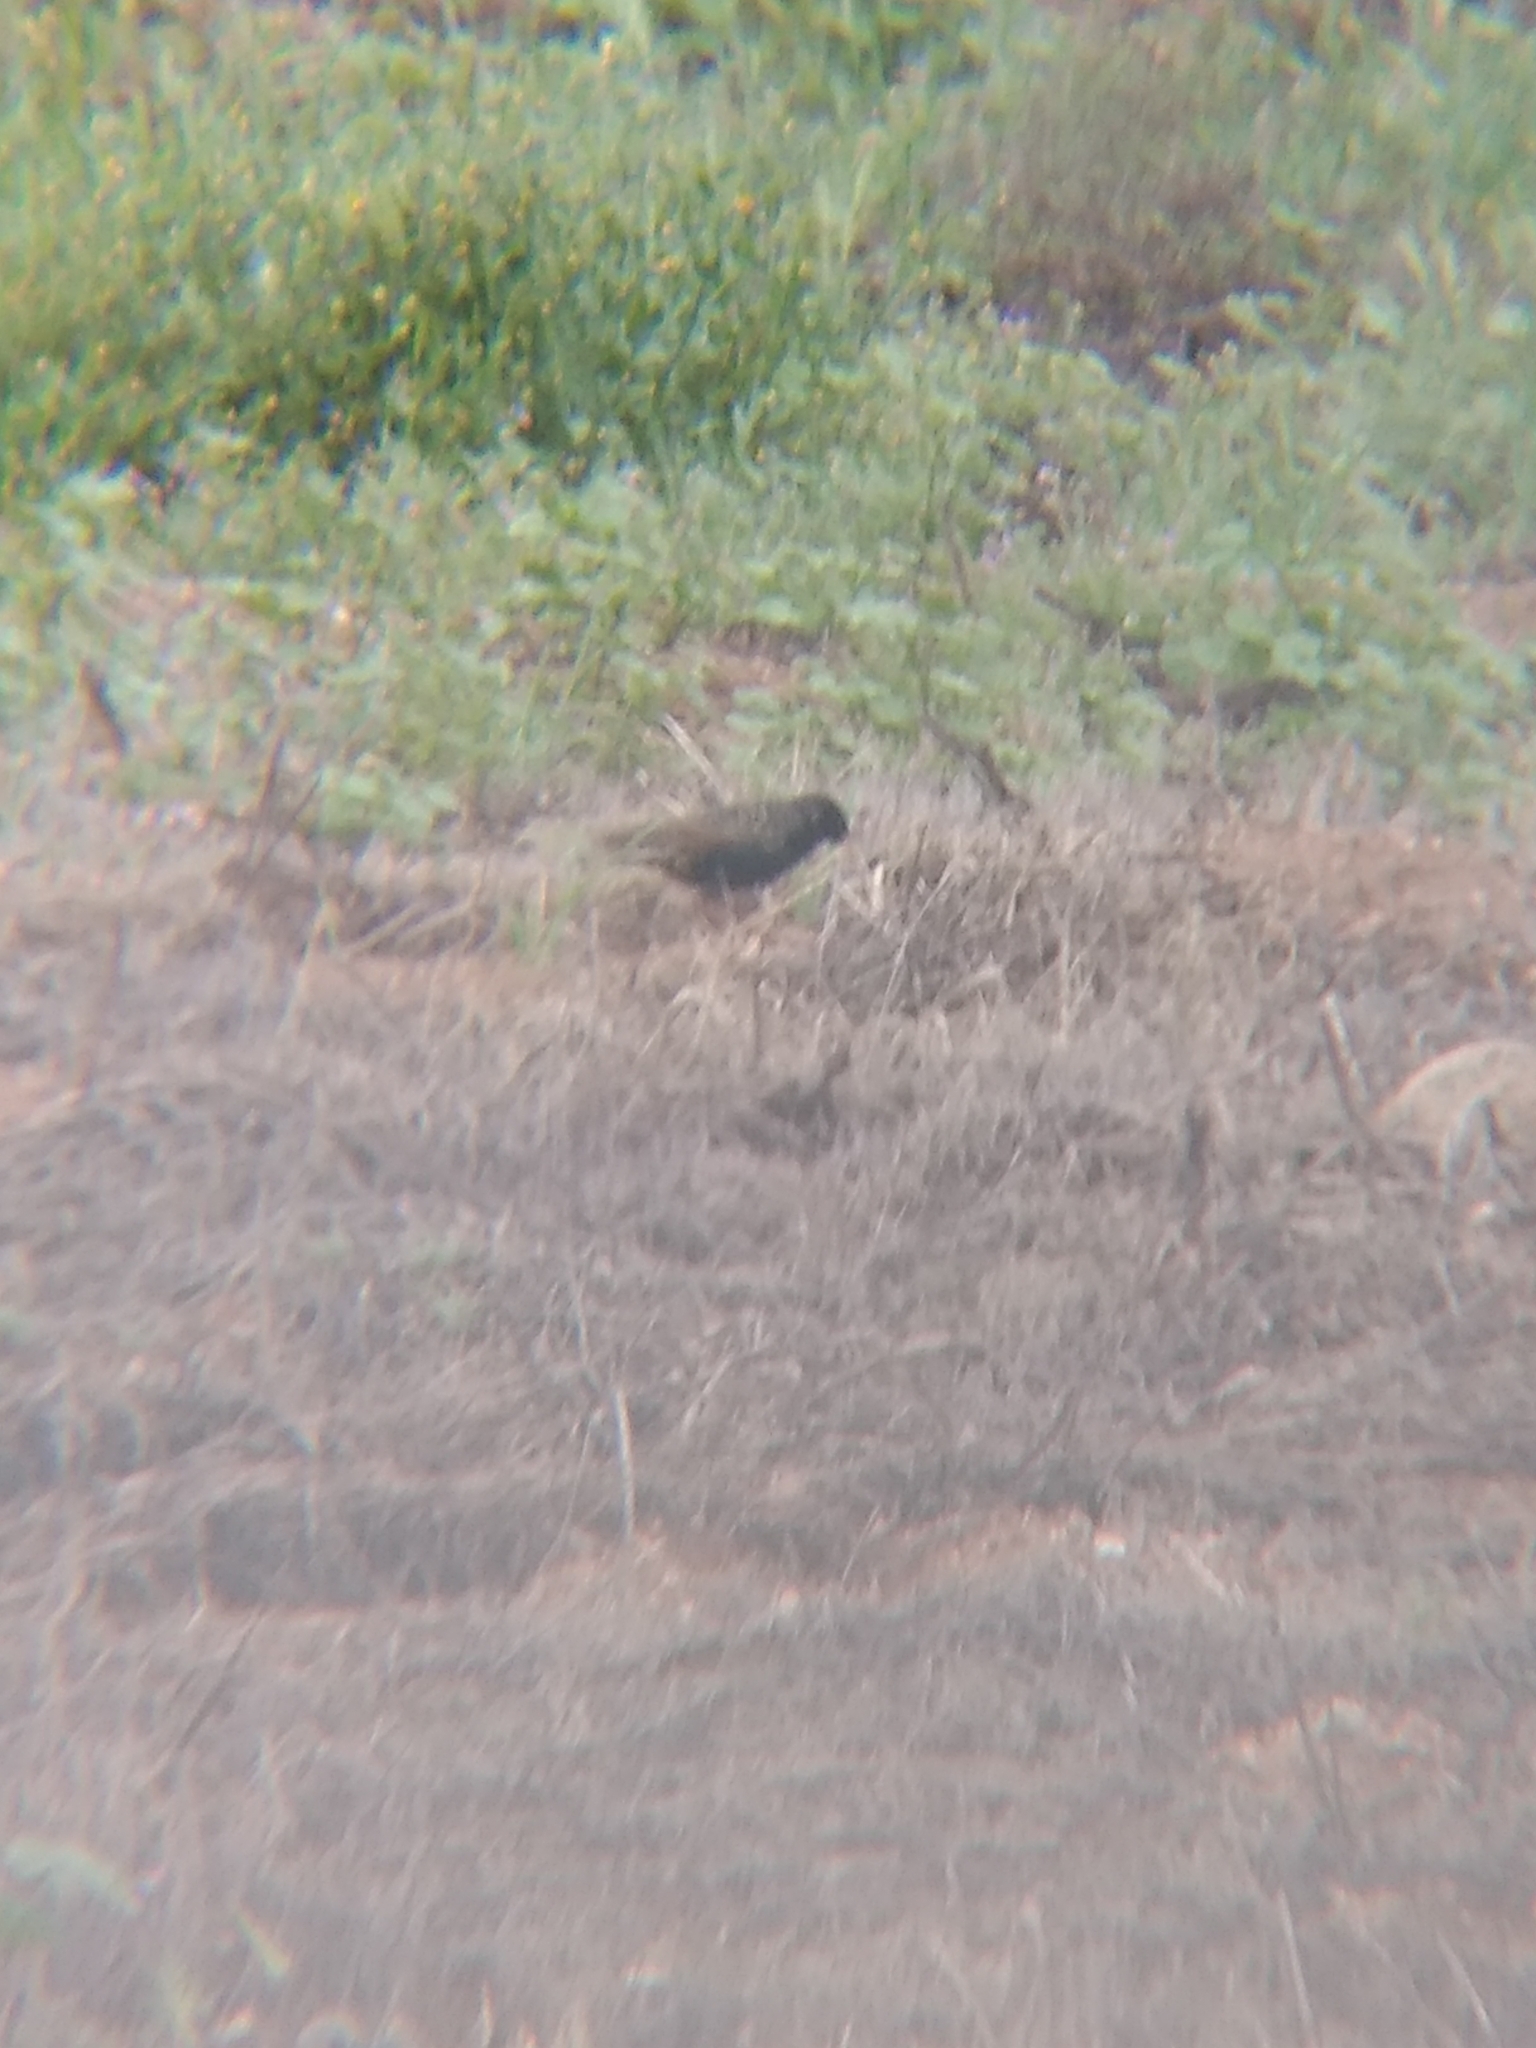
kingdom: Animalia
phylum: Chordata
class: Aves
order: Passeriformes
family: Sturnidae
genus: Sturnus
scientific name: Sturnus vulgaris
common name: Common starling
